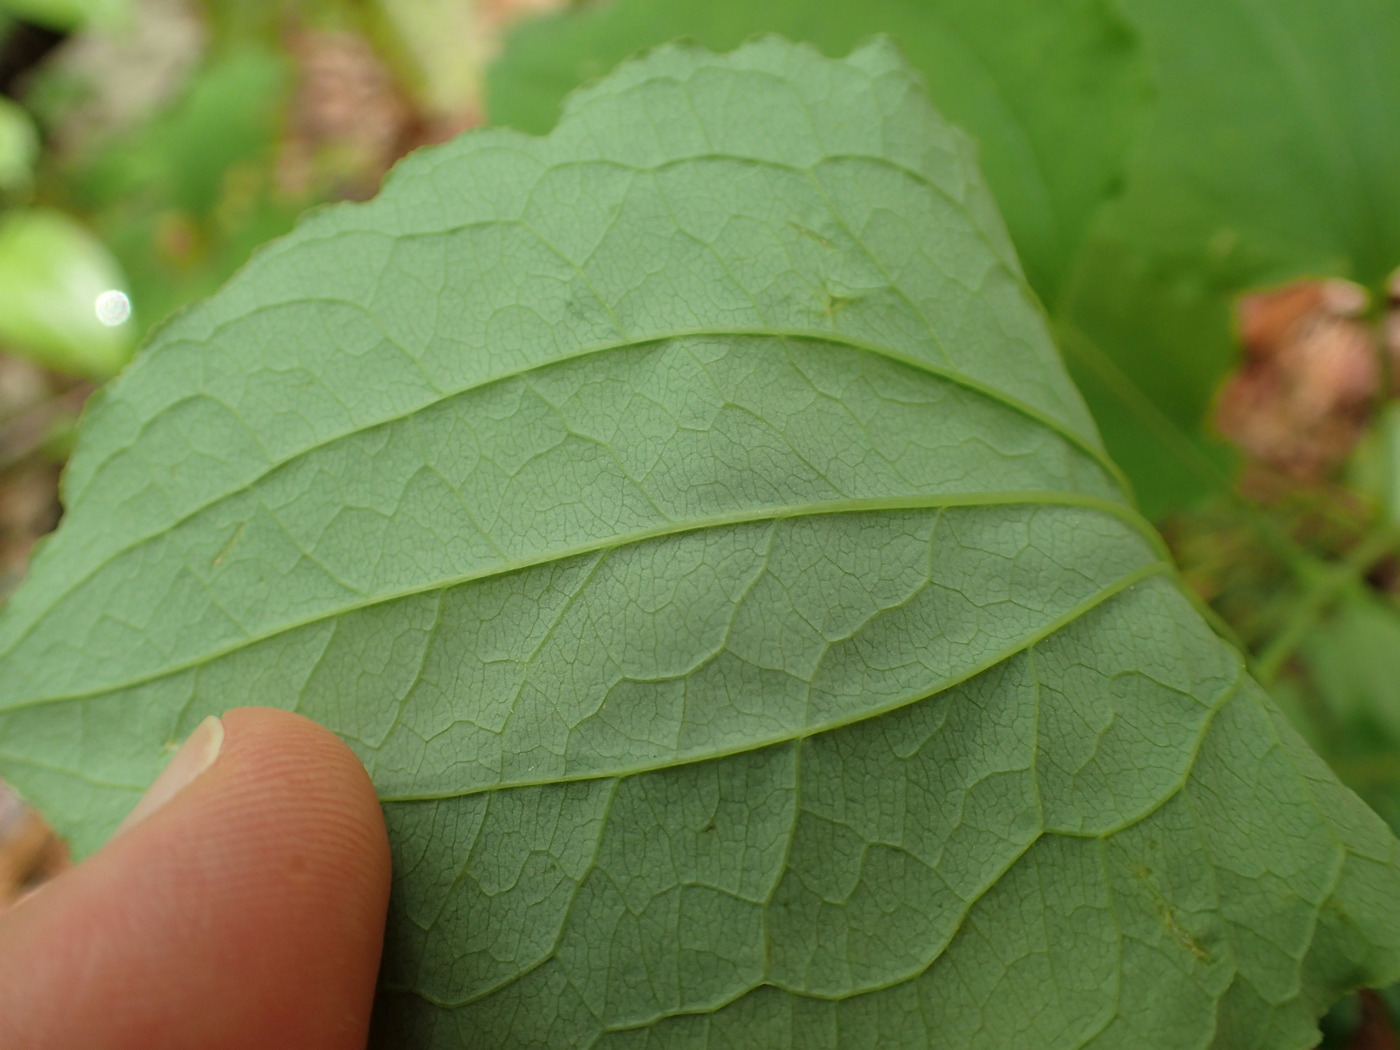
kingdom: Plantae
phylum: Tracheophyta
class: Liliopsida
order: Liliales
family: Smilacaceae
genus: Smilax
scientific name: Smilax herbacea
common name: Jacob's-ladder
